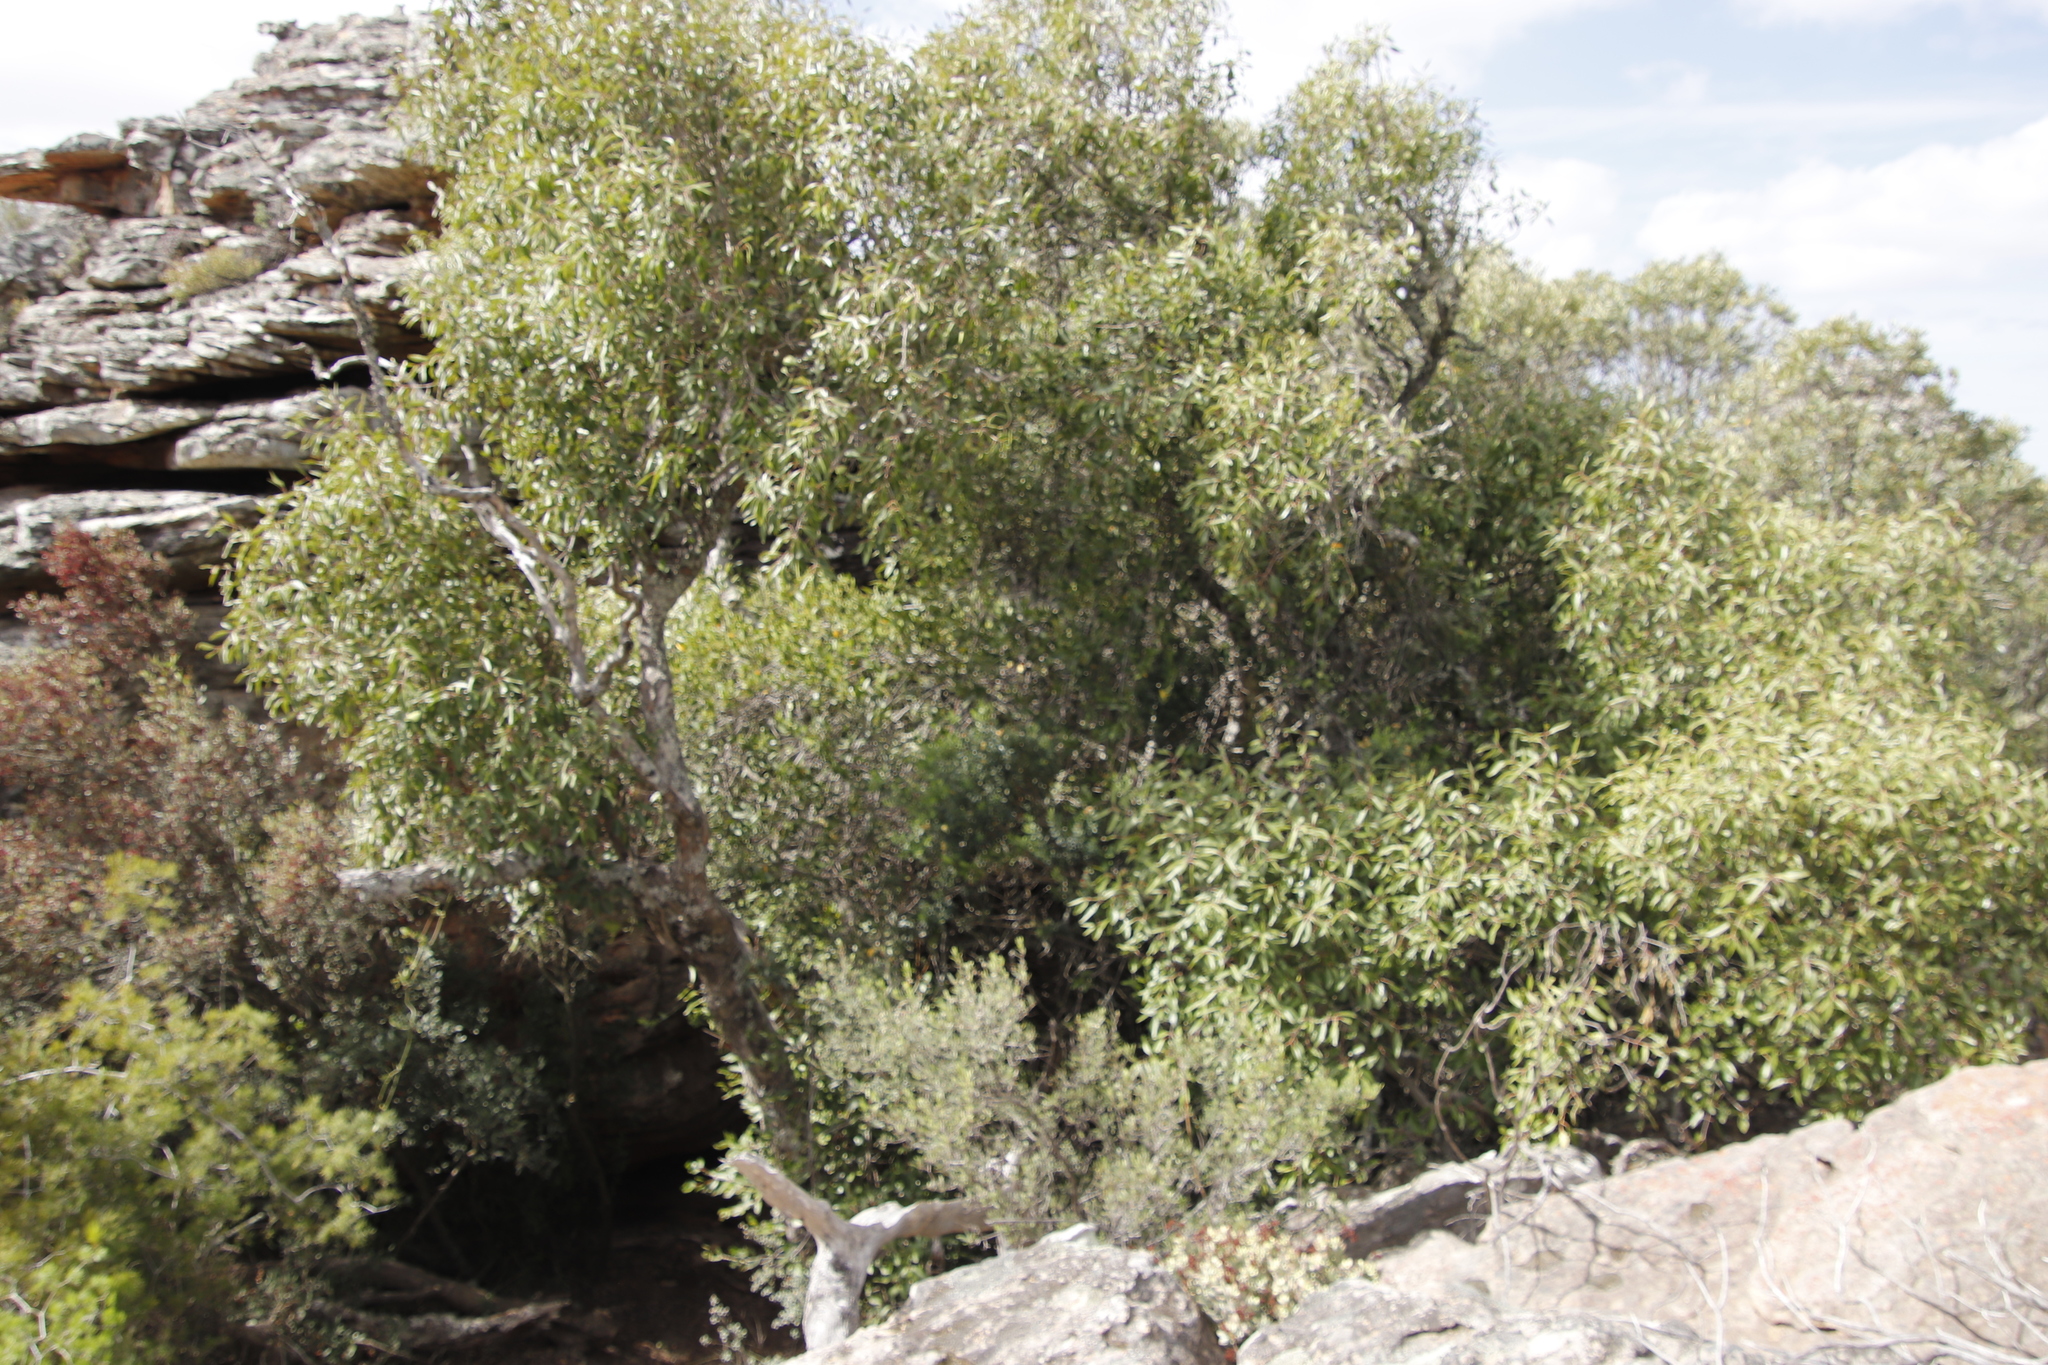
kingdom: Plantae
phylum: Tracheophyta
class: Magnoliopsida
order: Celastrales
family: Celastraceae
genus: Gymnosporia
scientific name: Gymnosporia acuminata
